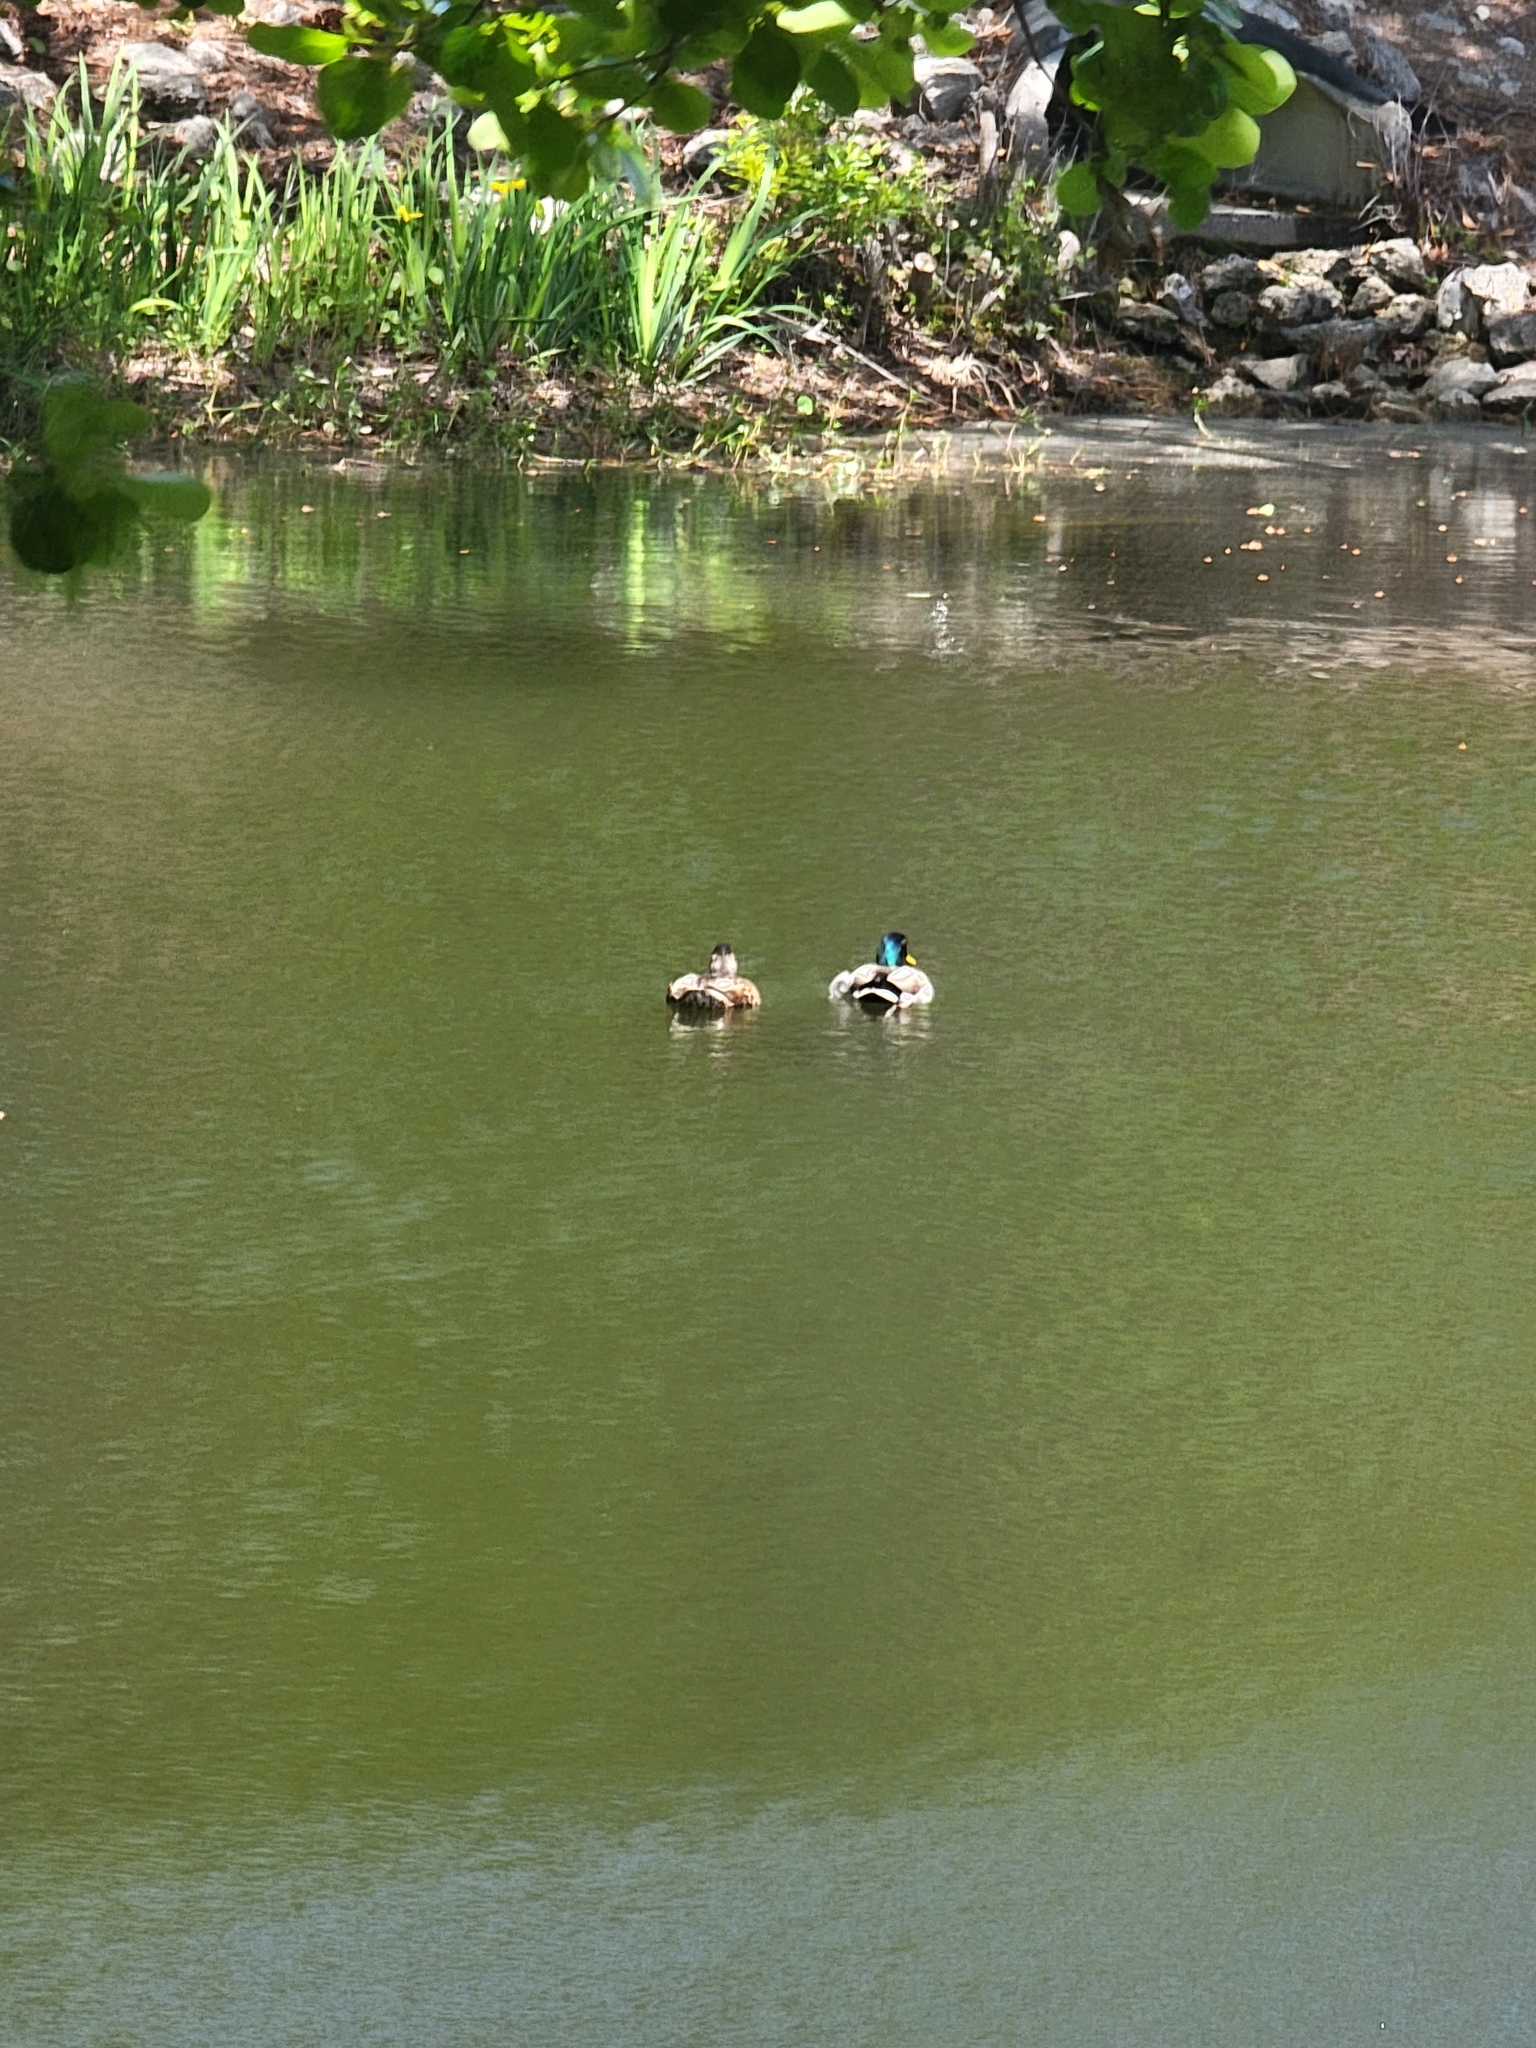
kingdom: Animalia
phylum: Chordata
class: Aves
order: Anseriformes
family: Anatidae
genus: Anas
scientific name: Anas platyrhynchos
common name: Mallard
